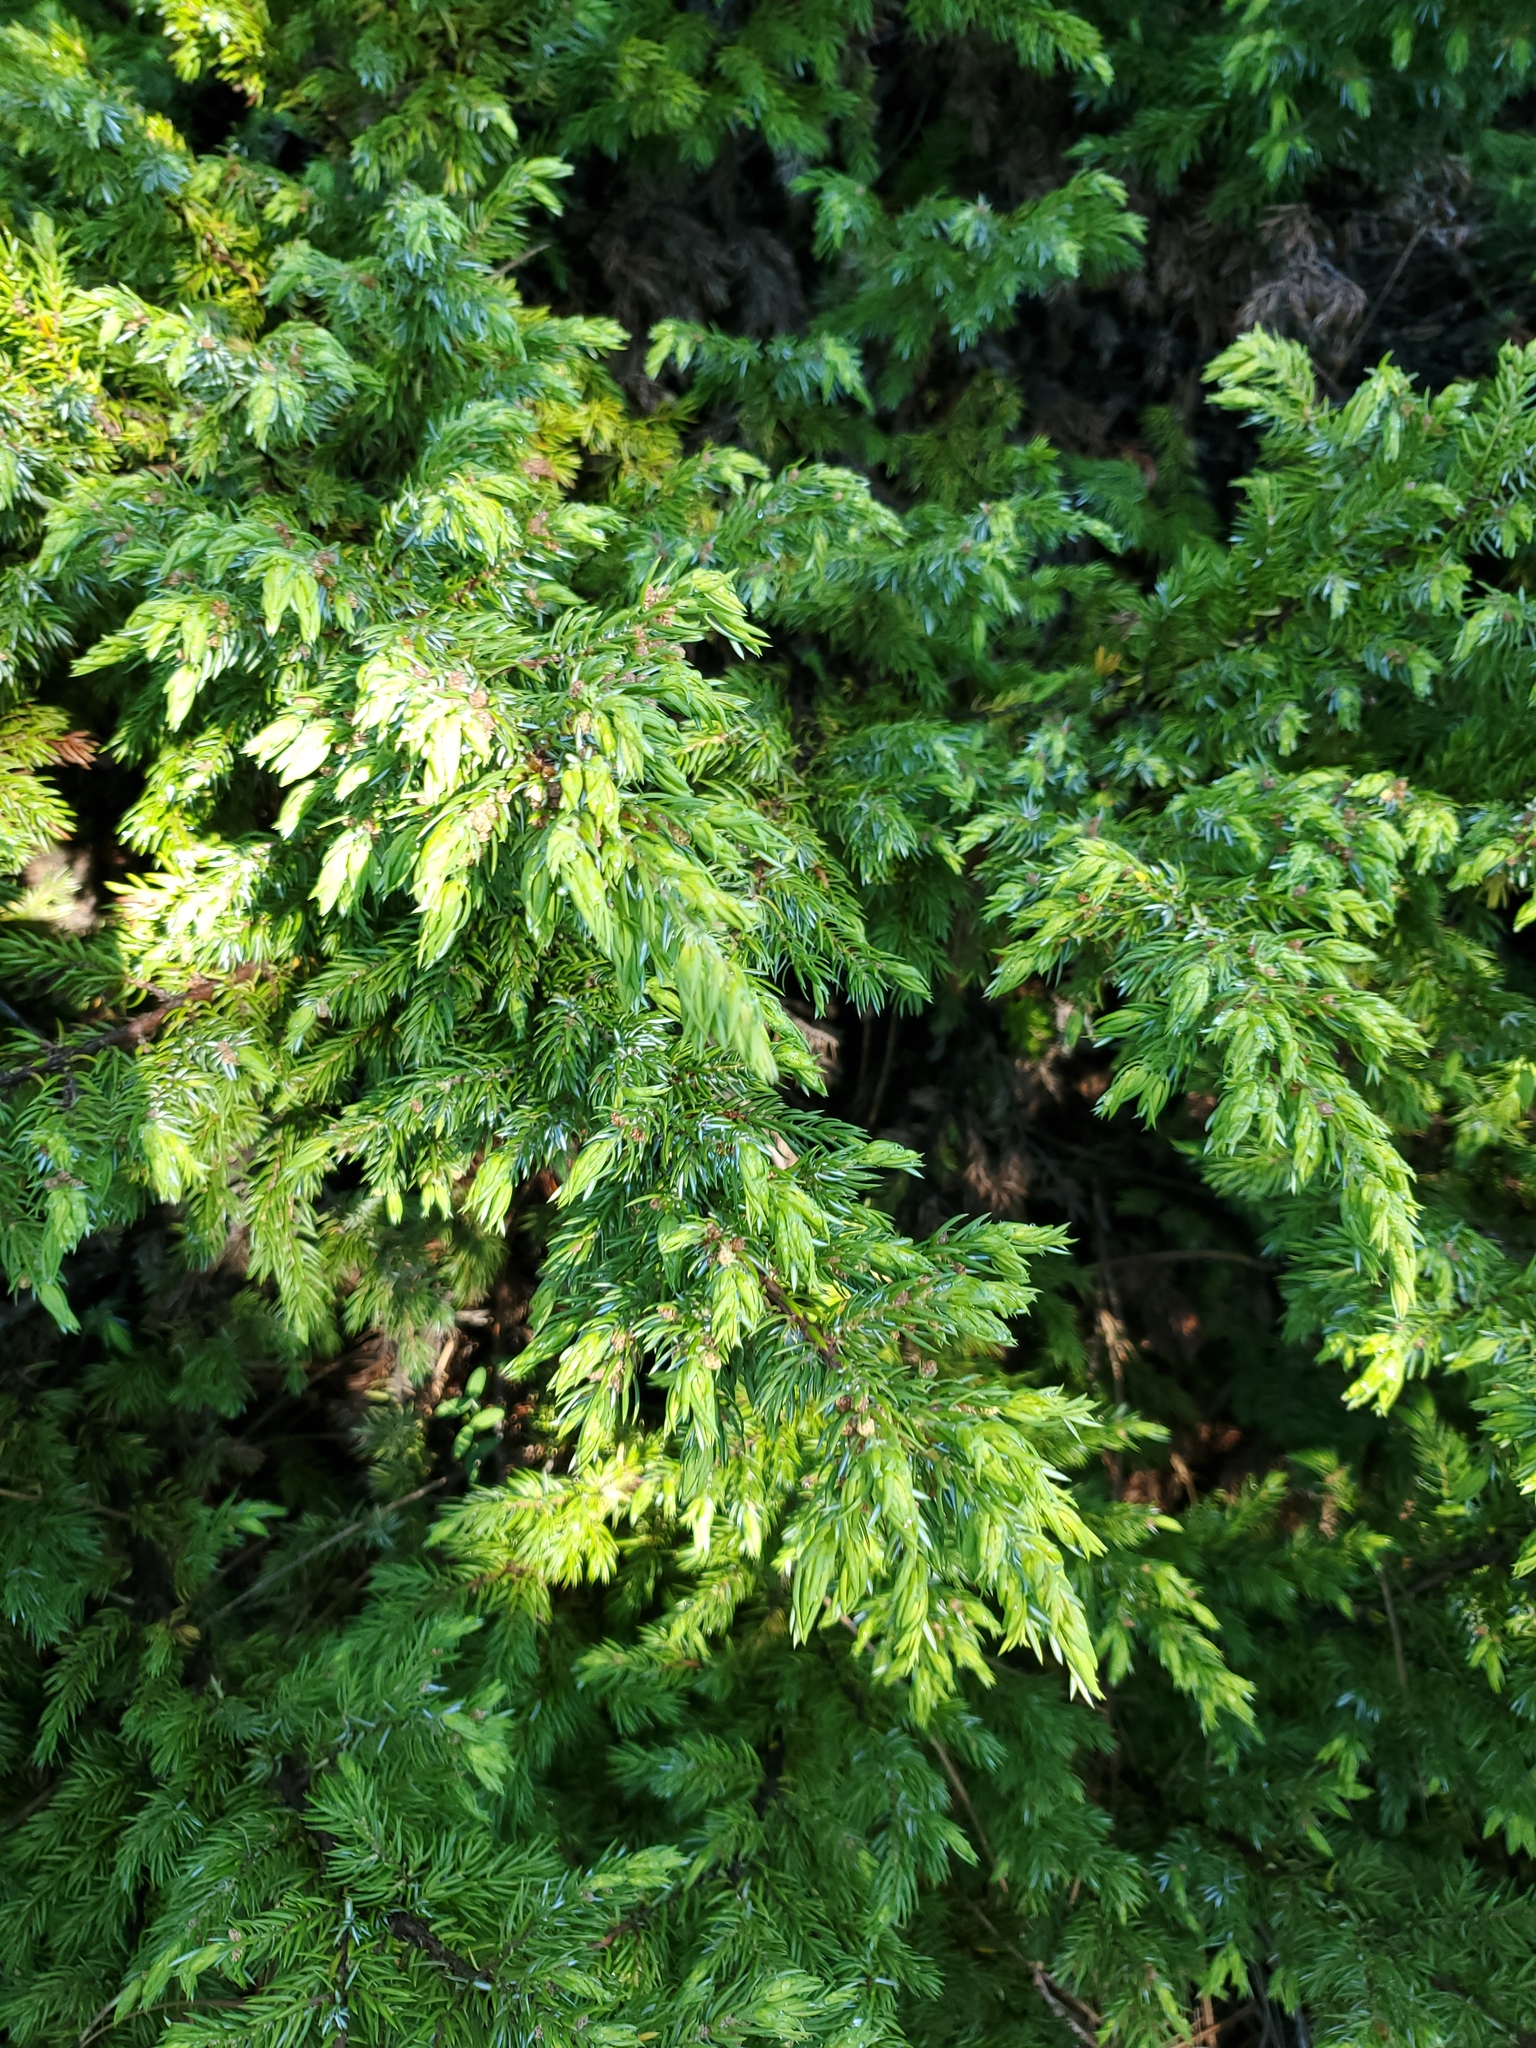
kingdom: Plantae
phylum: Tracheophyta
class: Pinopsida
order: Pinales
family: Cupressaceae
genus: Juniperus
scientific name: Juniperus communis
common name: Common juniper
